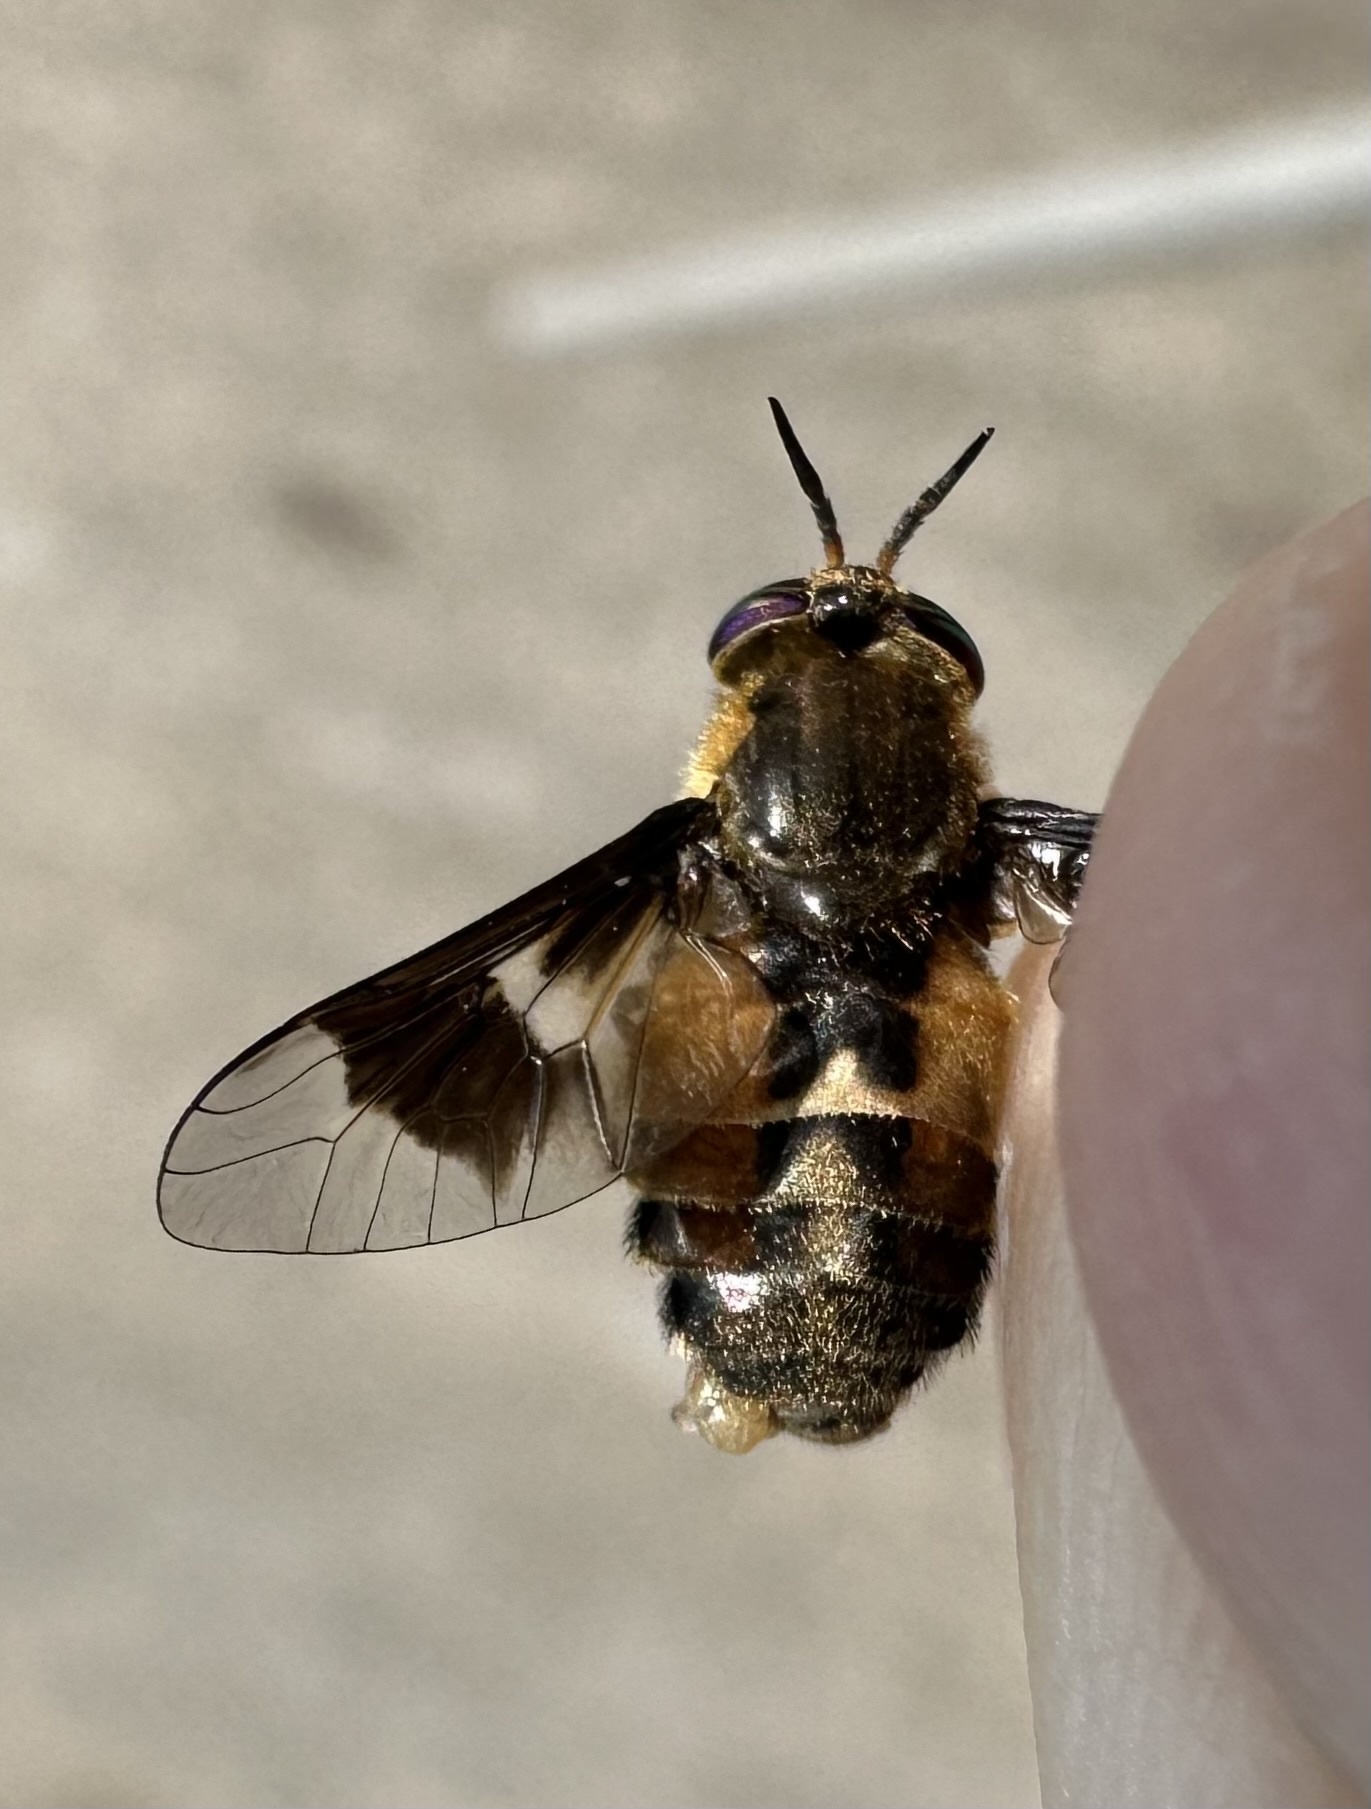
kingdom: Animalia
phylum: Arthropoda
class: Insecta
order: Diptera
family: Tabanidae
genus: Chrysops
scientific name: Chrysops excitans
